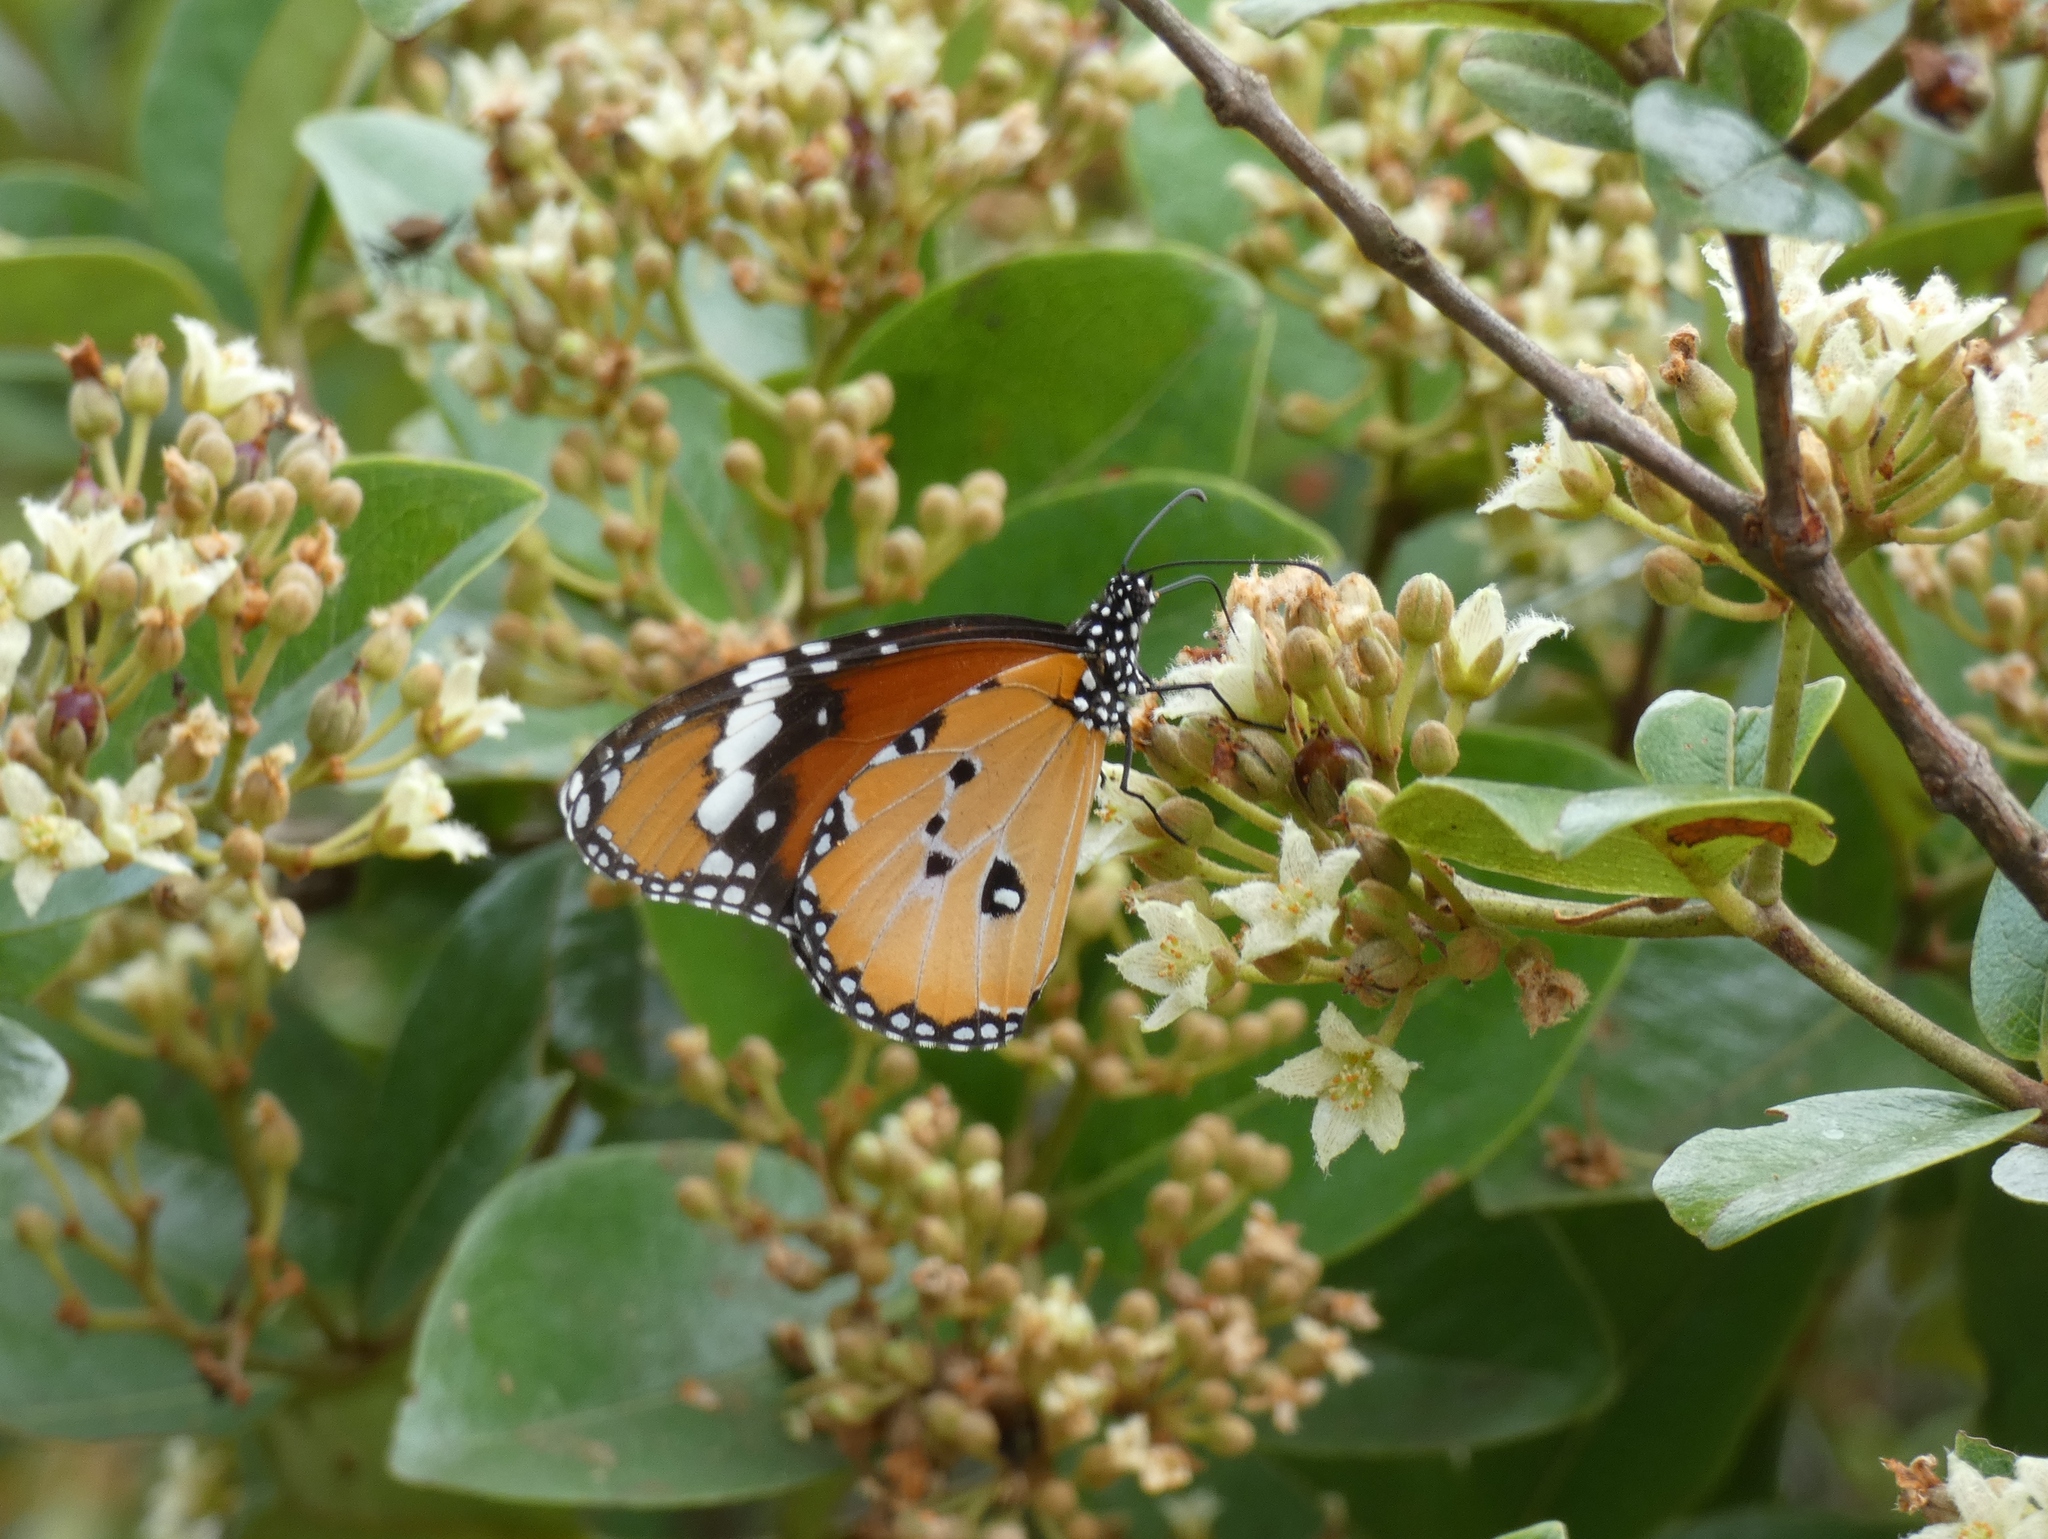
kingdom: Animalia
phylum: Arthropoda
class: Insecta
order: Lepidoptera
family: Nymphalidae
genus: Danaus
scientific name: Danaus chrysippus
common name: Plain tiger
